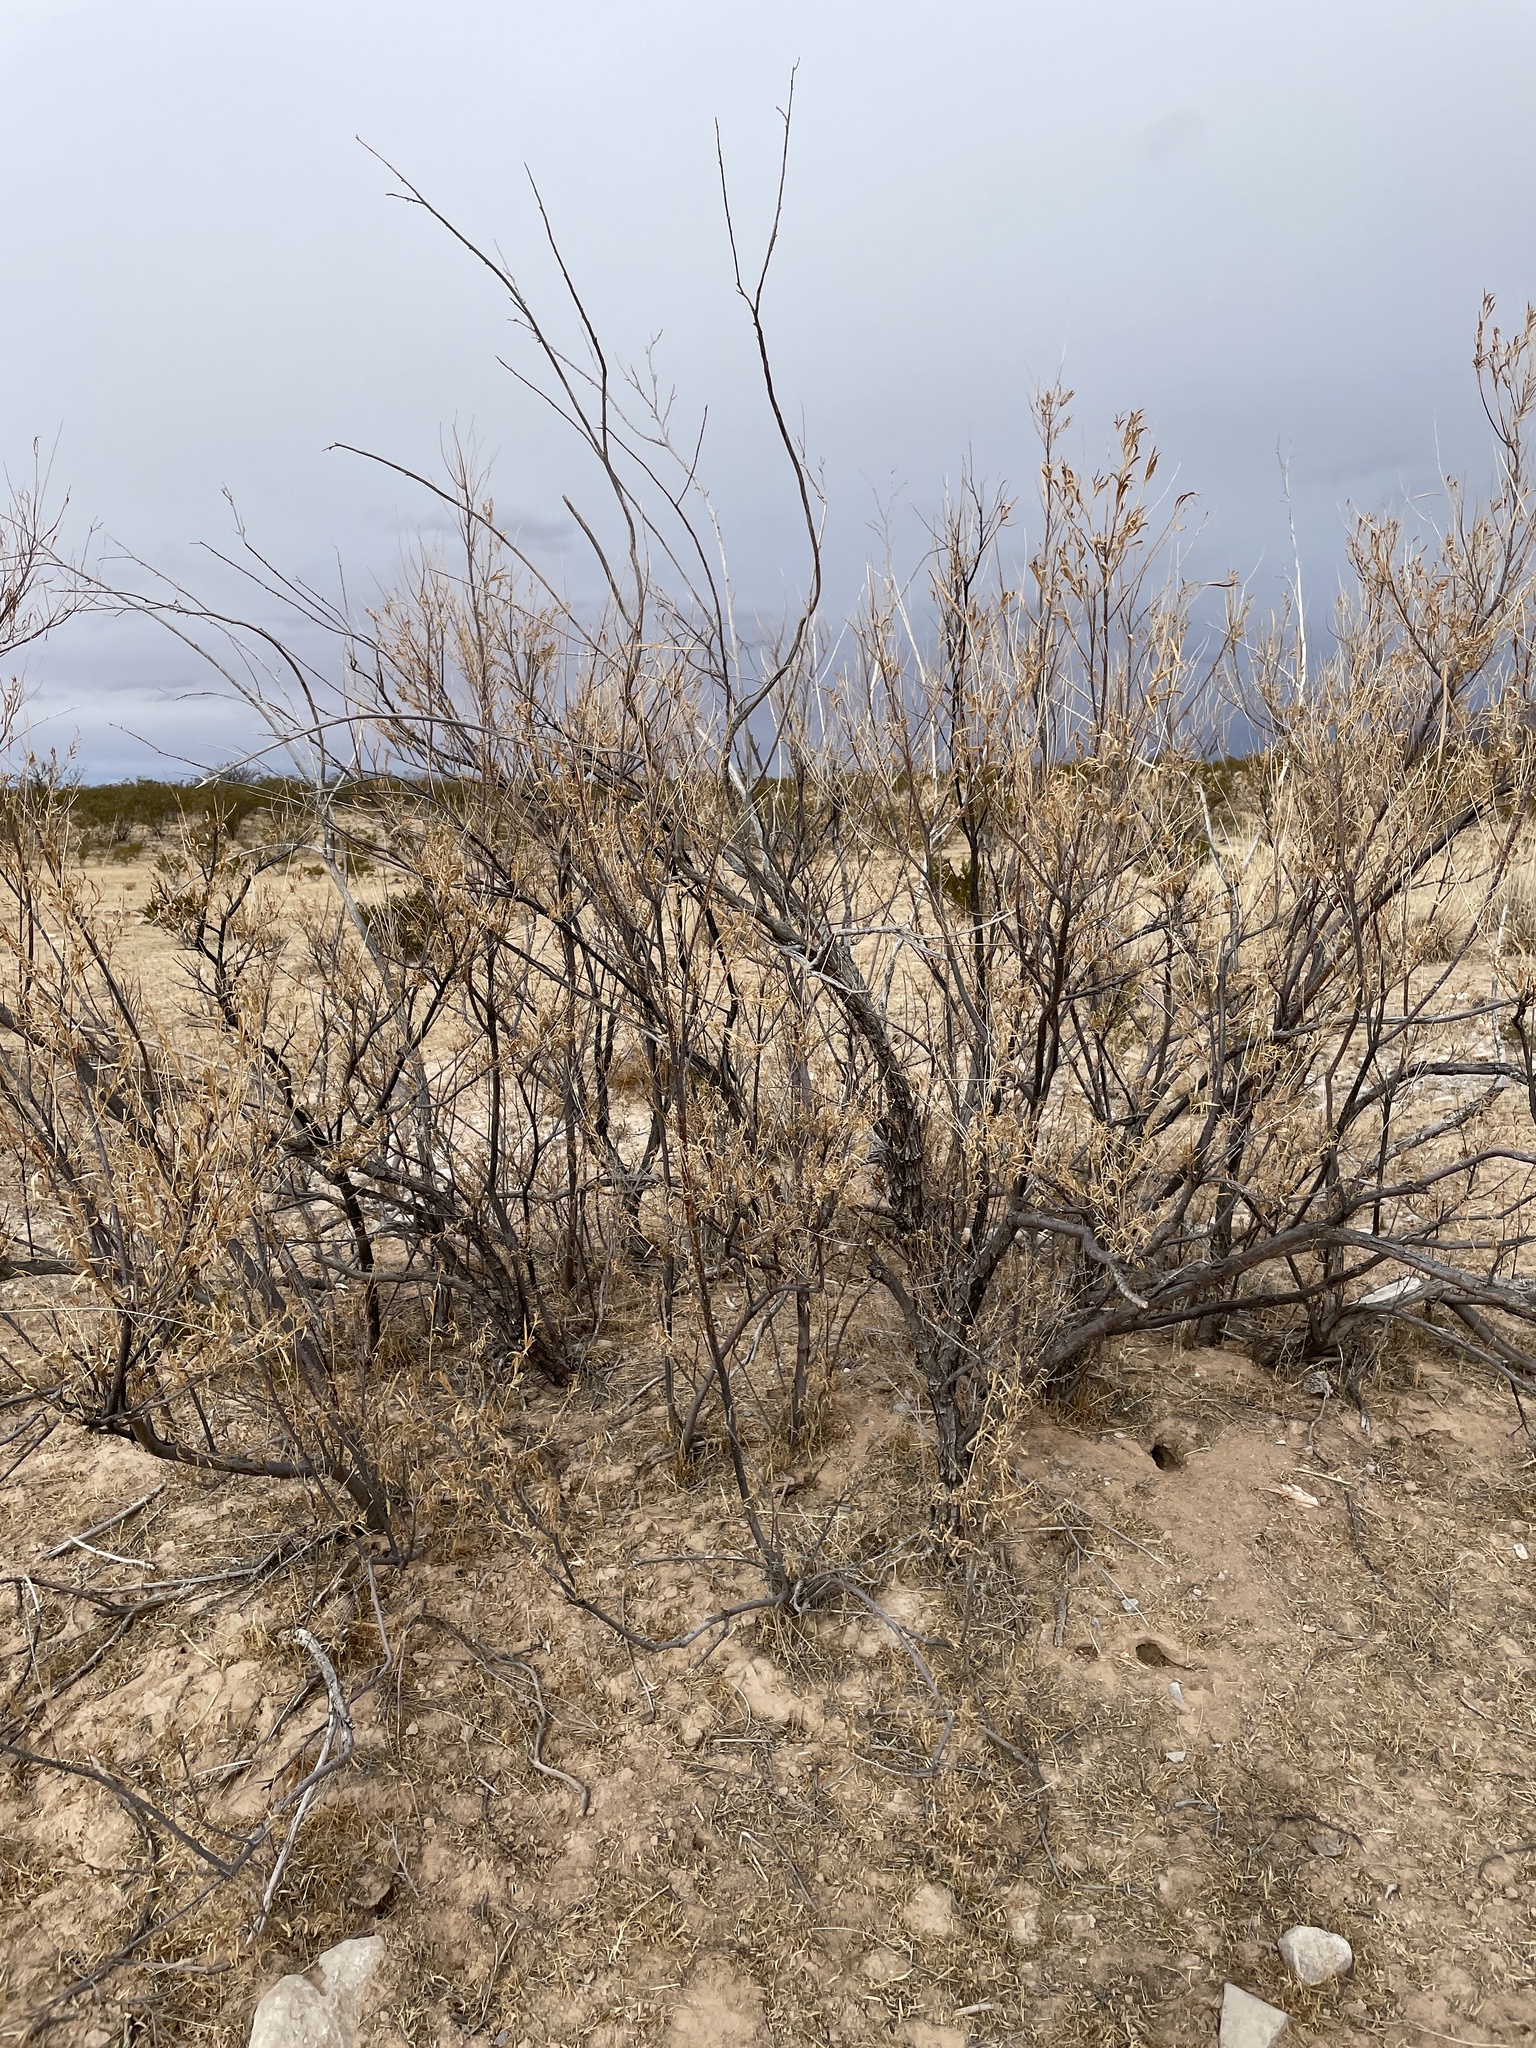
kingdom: Plantae
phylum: Tracheophyta
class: Magnoliopsida
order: Lamiales
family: Bignoniaceae
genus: Chilopsis
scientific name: Chilopsis linearis
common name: Desert-willow
